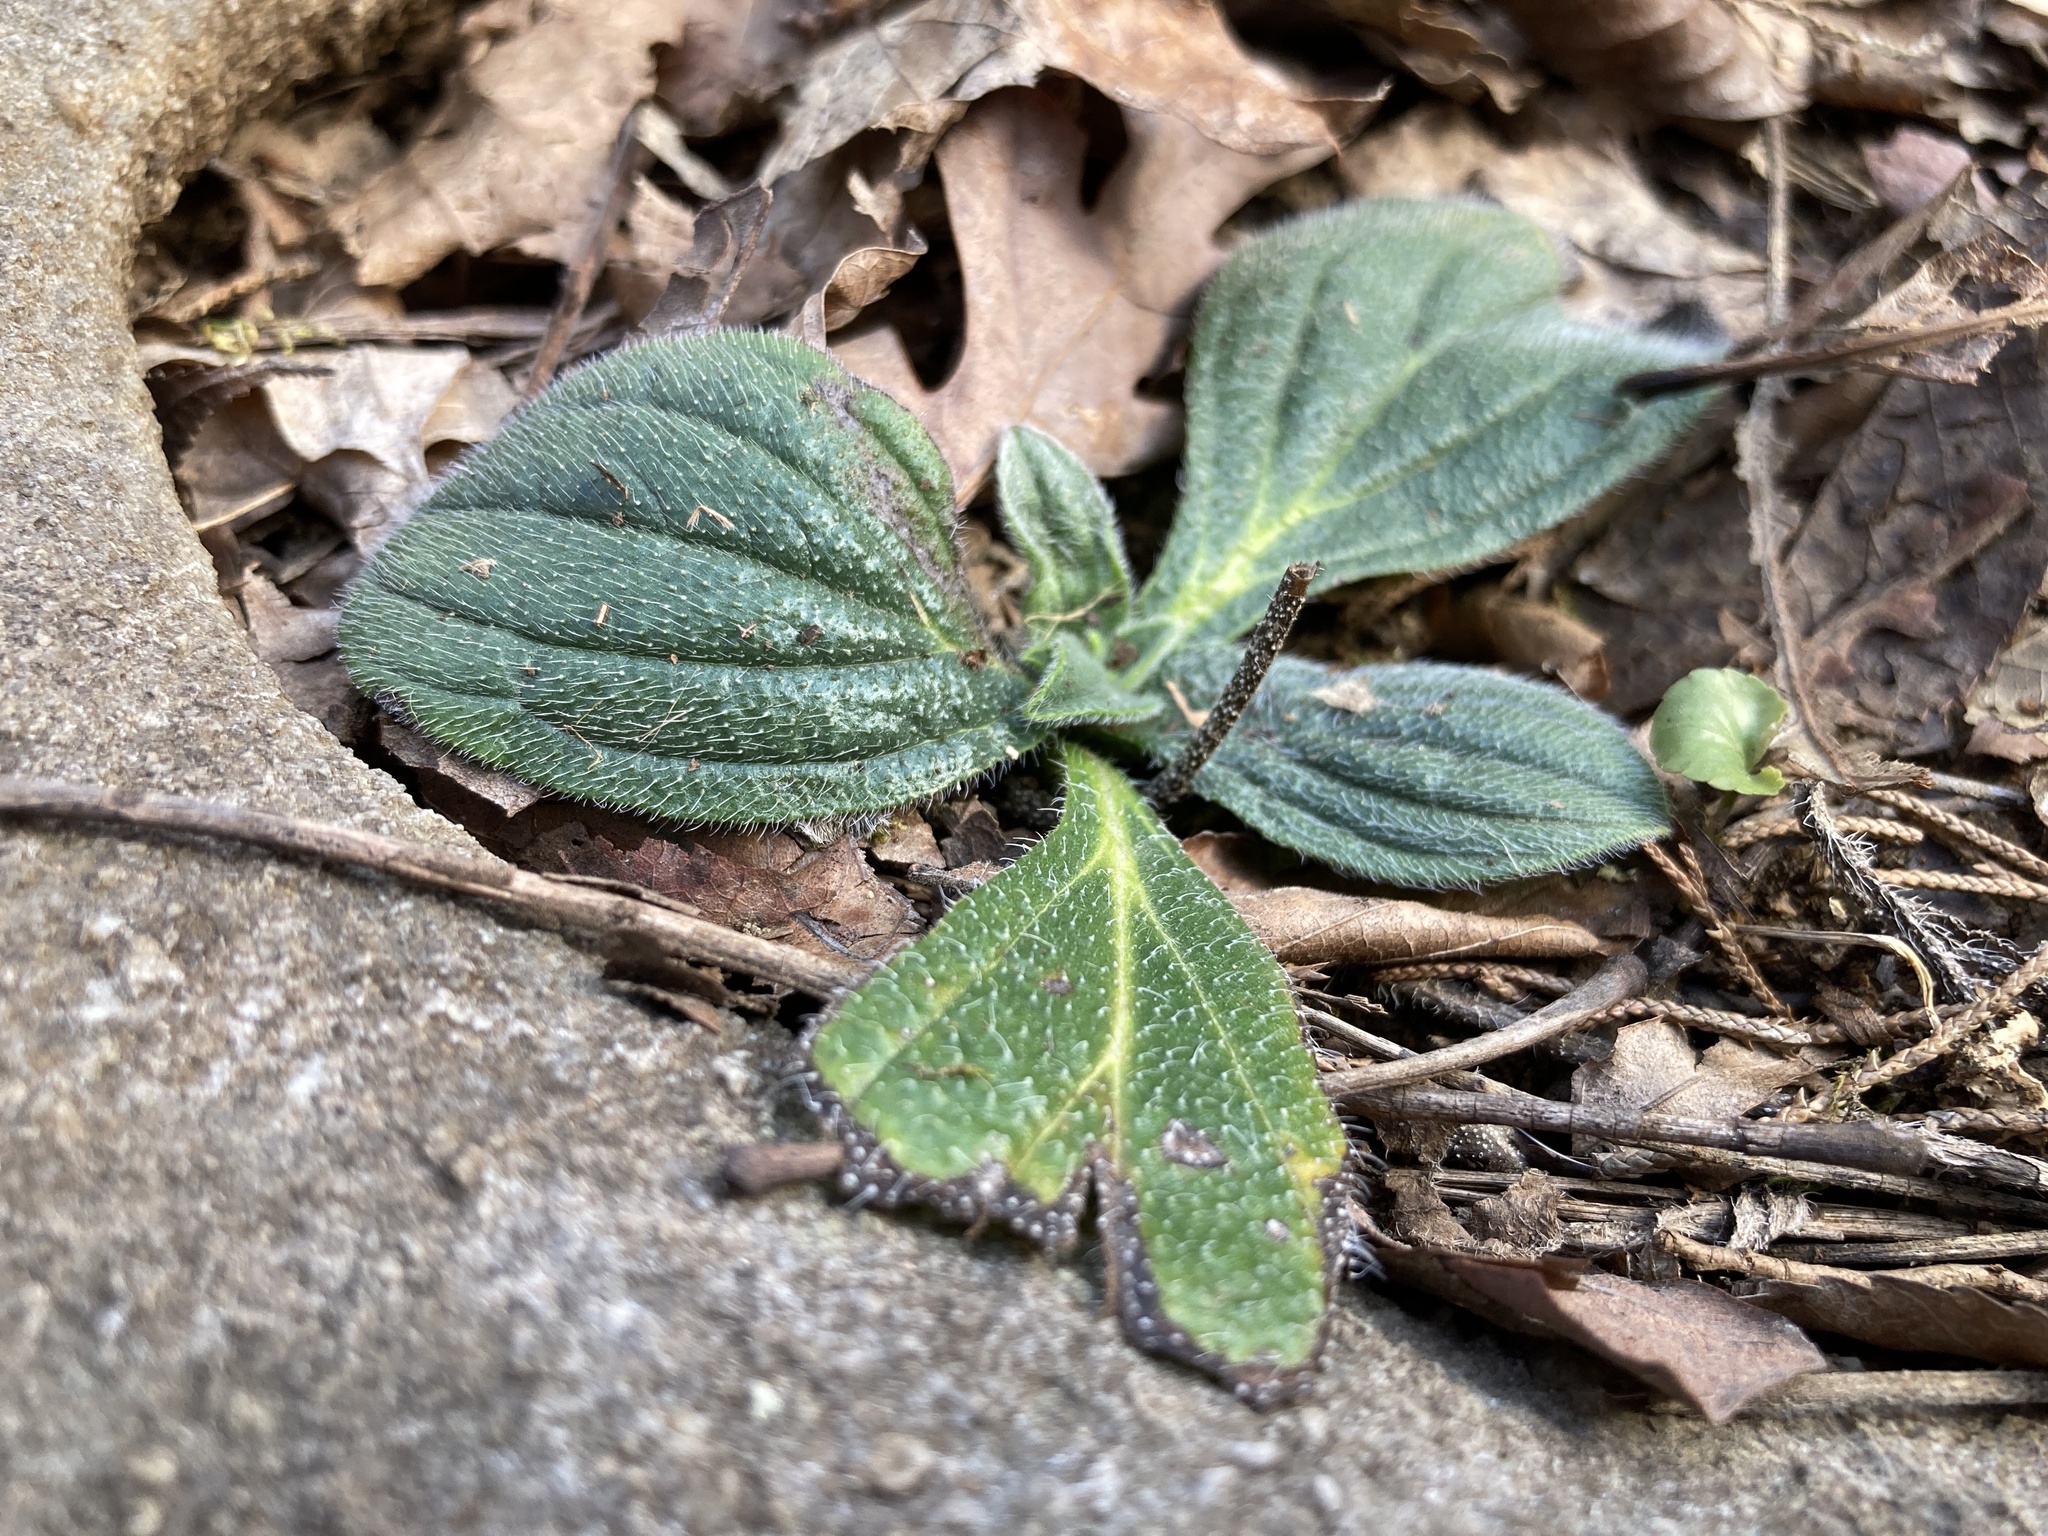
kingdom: Plantae
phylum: Tracheophyta
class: Magnoliopsida
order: Boraginales
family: Boraginaceae
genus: Lithospermum
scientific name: Lithospermum tuberosum
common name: Southern stoneseed
